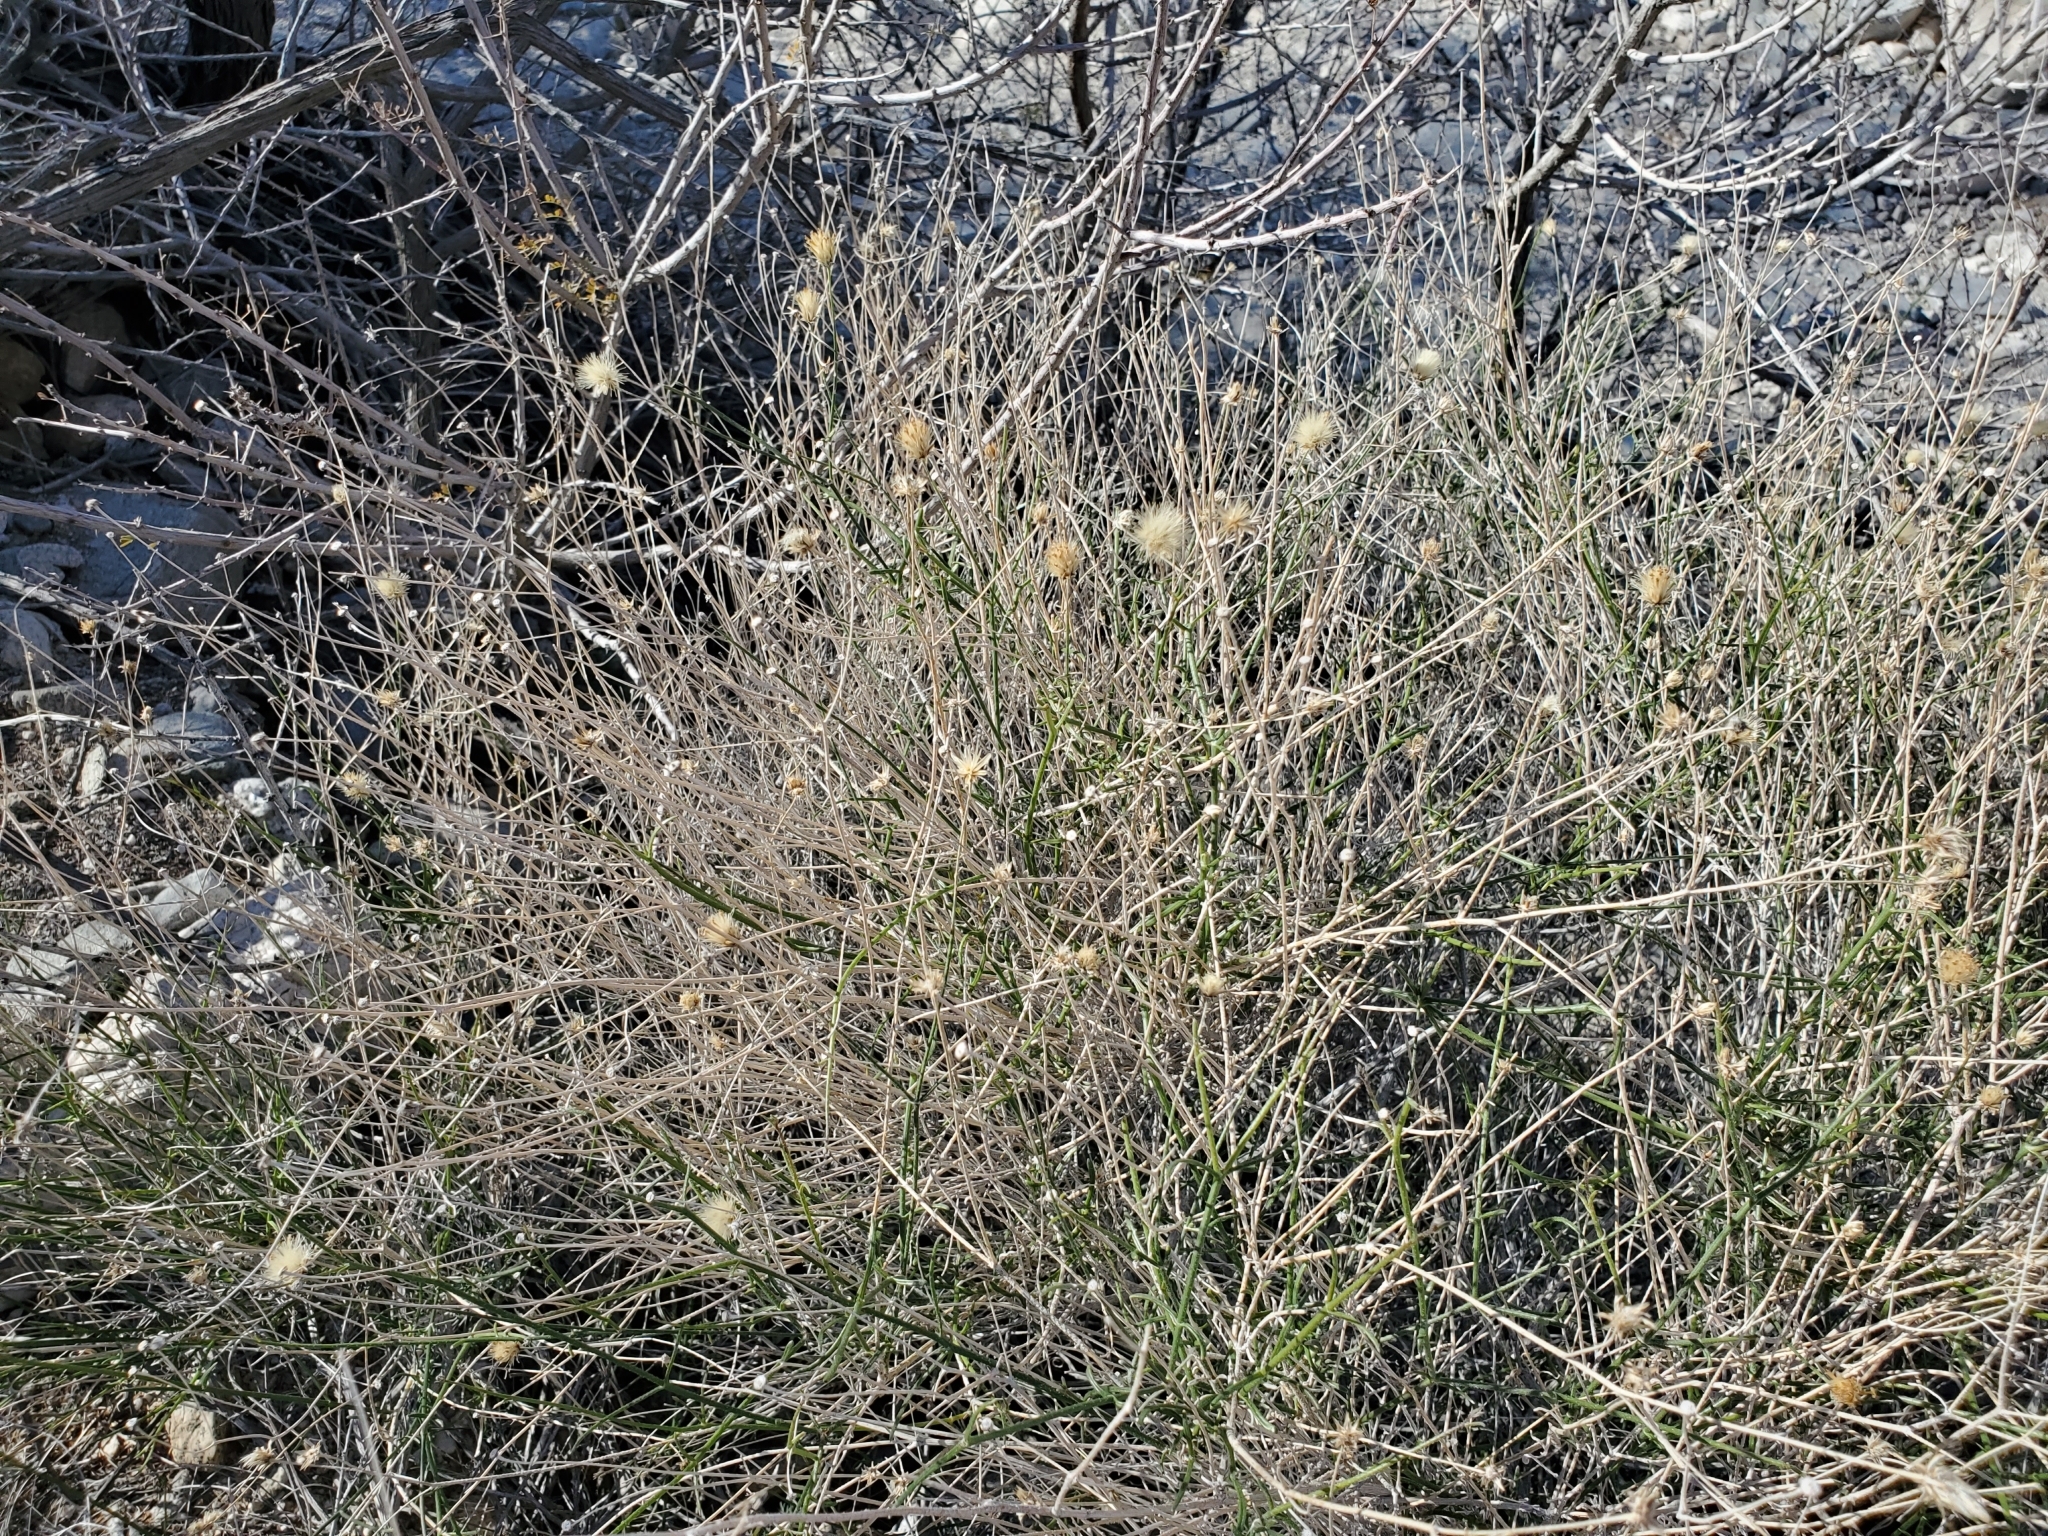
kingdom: Plantae
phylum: Tracheophyta
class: Magnoliopsida
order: Asterales
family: Asteraceae
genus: Bebbia
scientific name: Bebbia juncea
